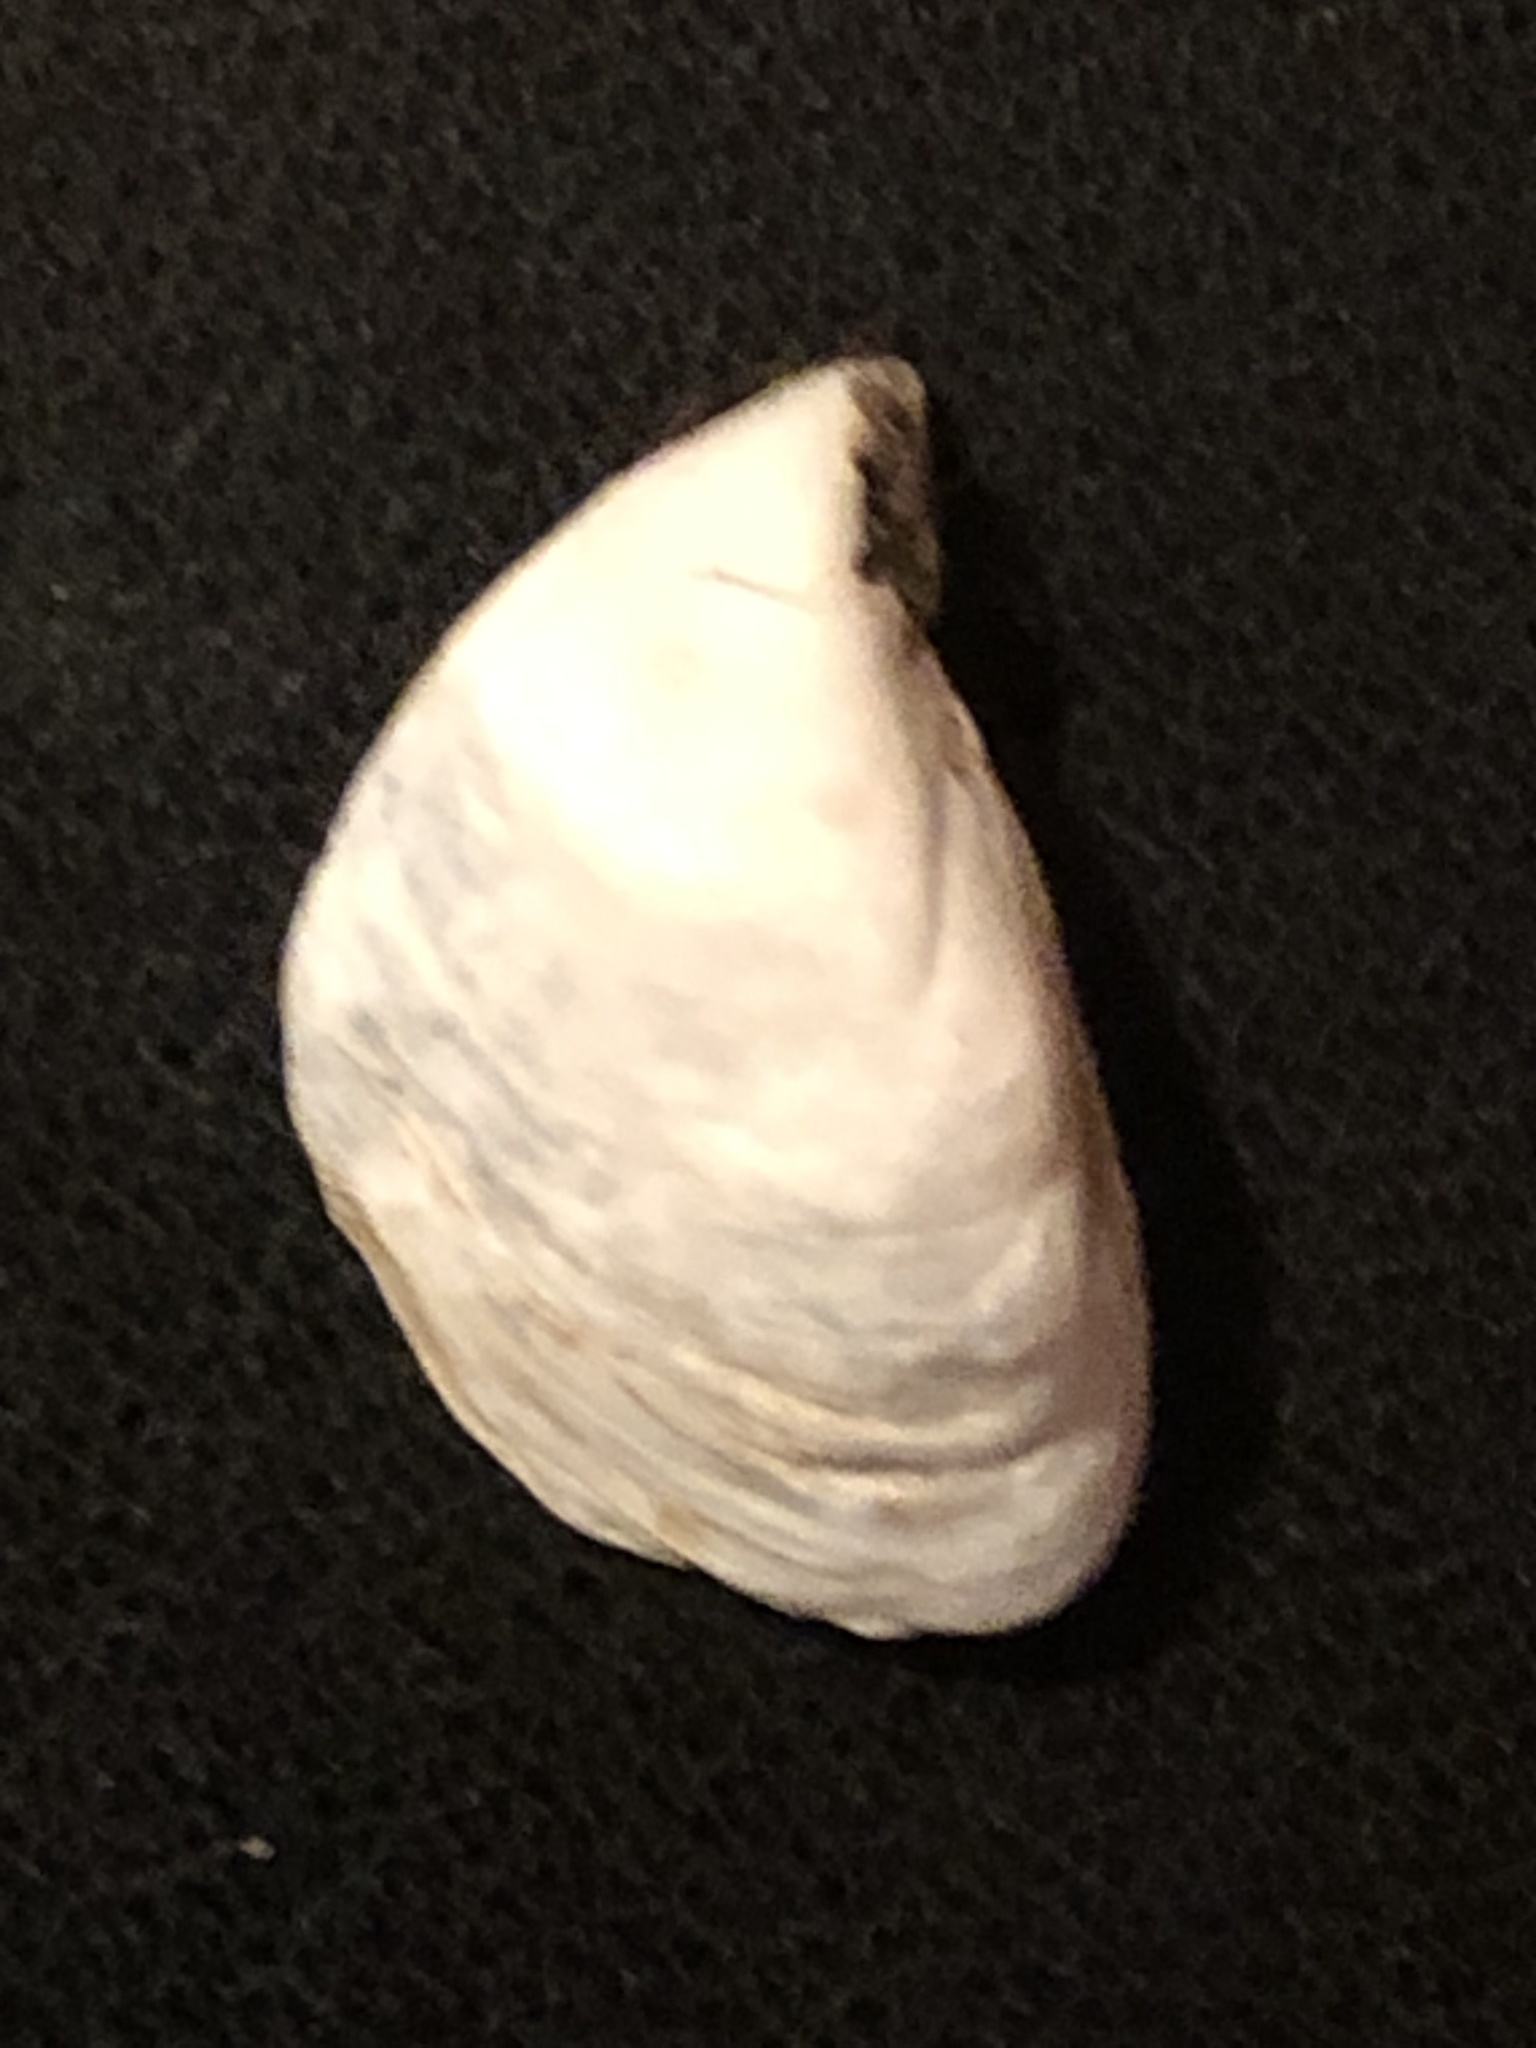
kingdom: Animalia
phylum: Mollusca
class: Bivalvia
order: Myida
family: Dreissenidae
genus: Dreissena
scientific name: Dreissena bugensis
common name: Quagga mussel
